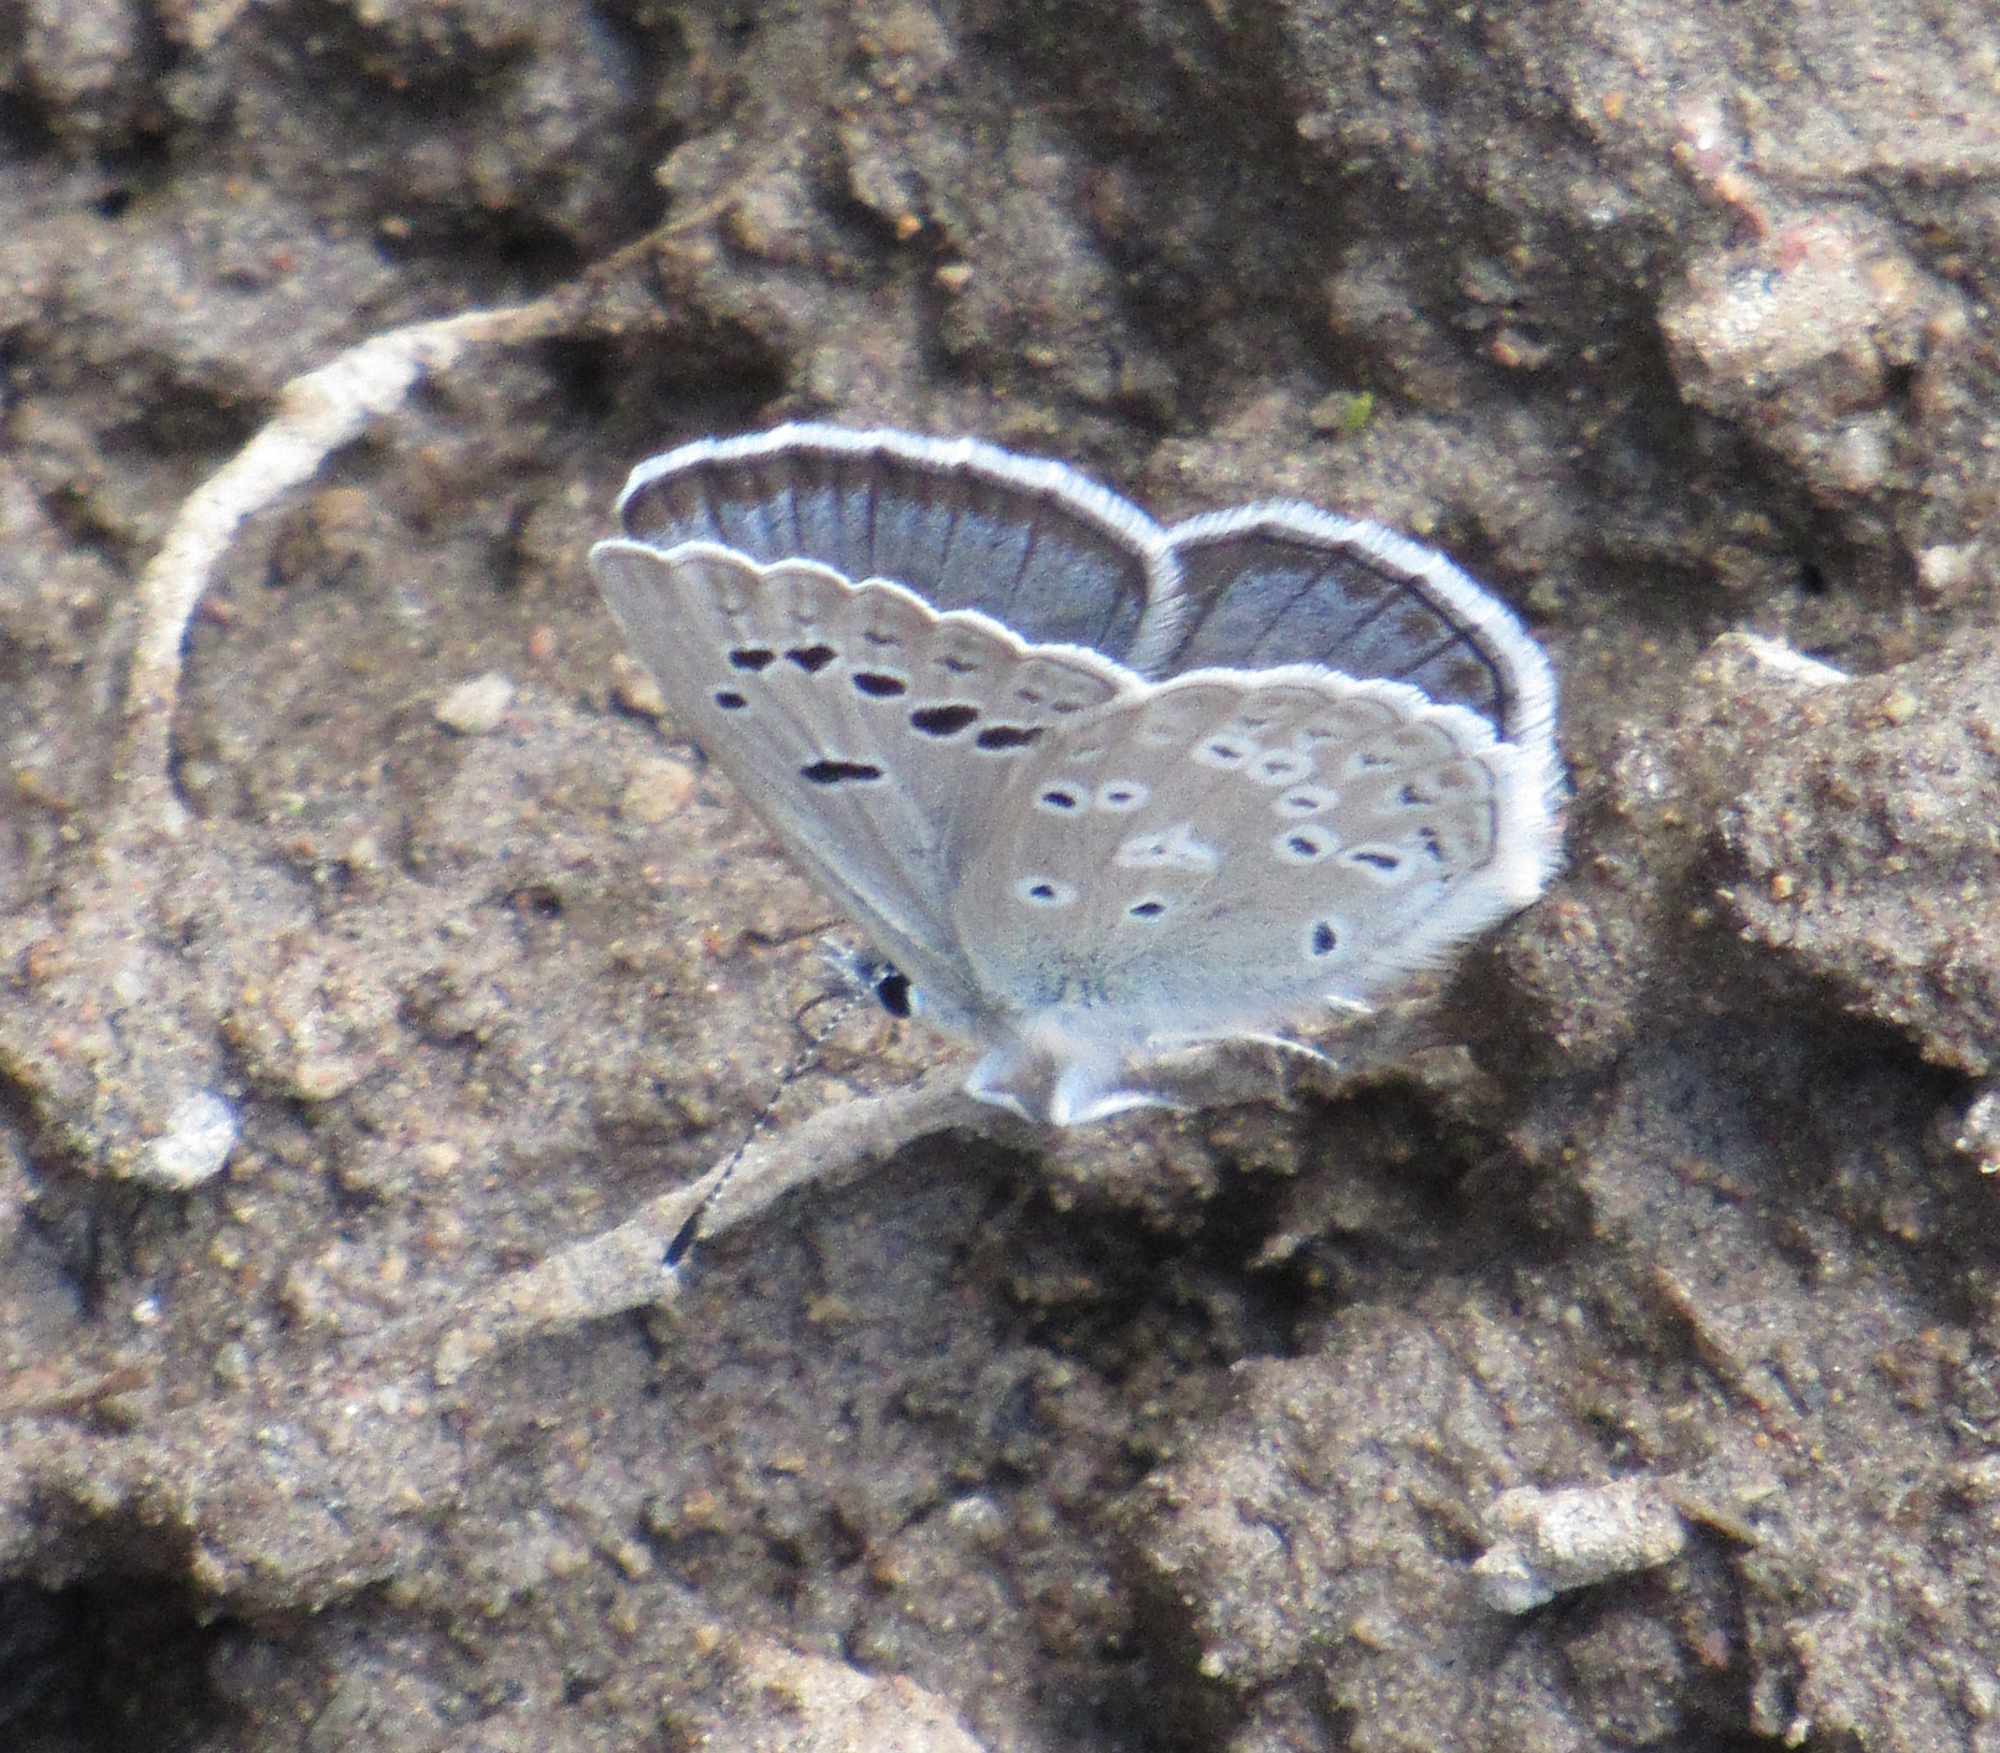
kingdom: Animalia
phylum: Arthropoda
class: Insecta
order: Lepidoptera
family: Lycaenidae
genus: Icaricia
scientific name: Icaricia icarioides
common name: Boisduval's blue
